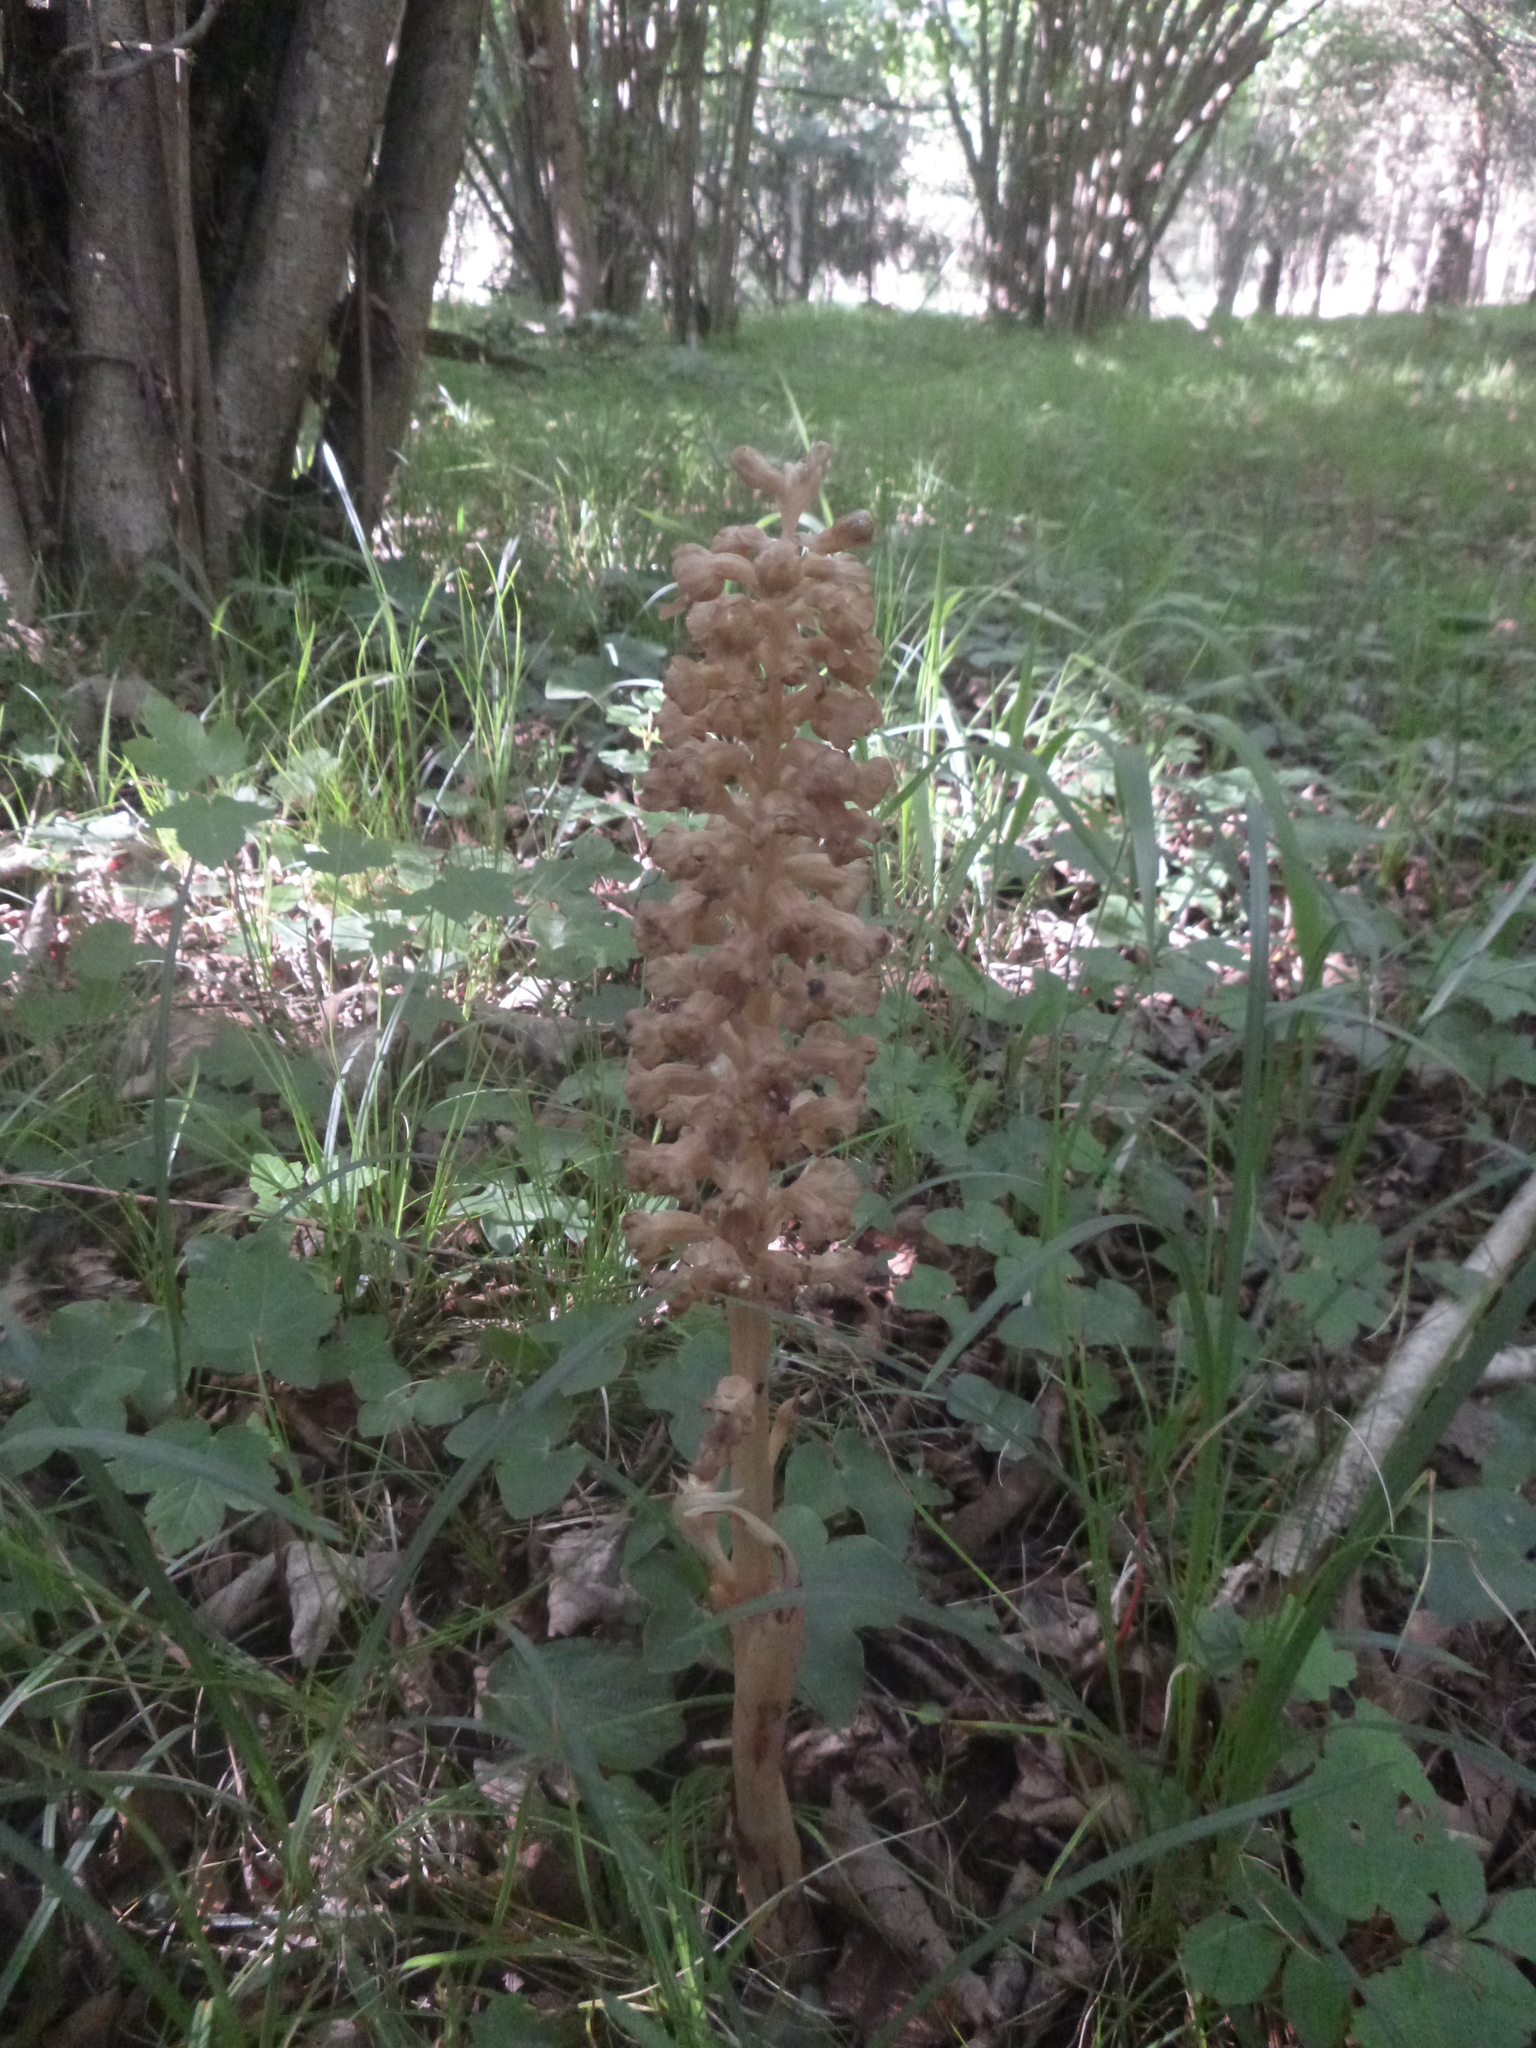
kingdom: Plantae
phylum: Tracheophyta
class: Liliopsida
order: Asparagales
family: Orchidaceae
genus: Neottia
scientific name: Neottia nidus-avis
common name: Bird's-nest orchid
